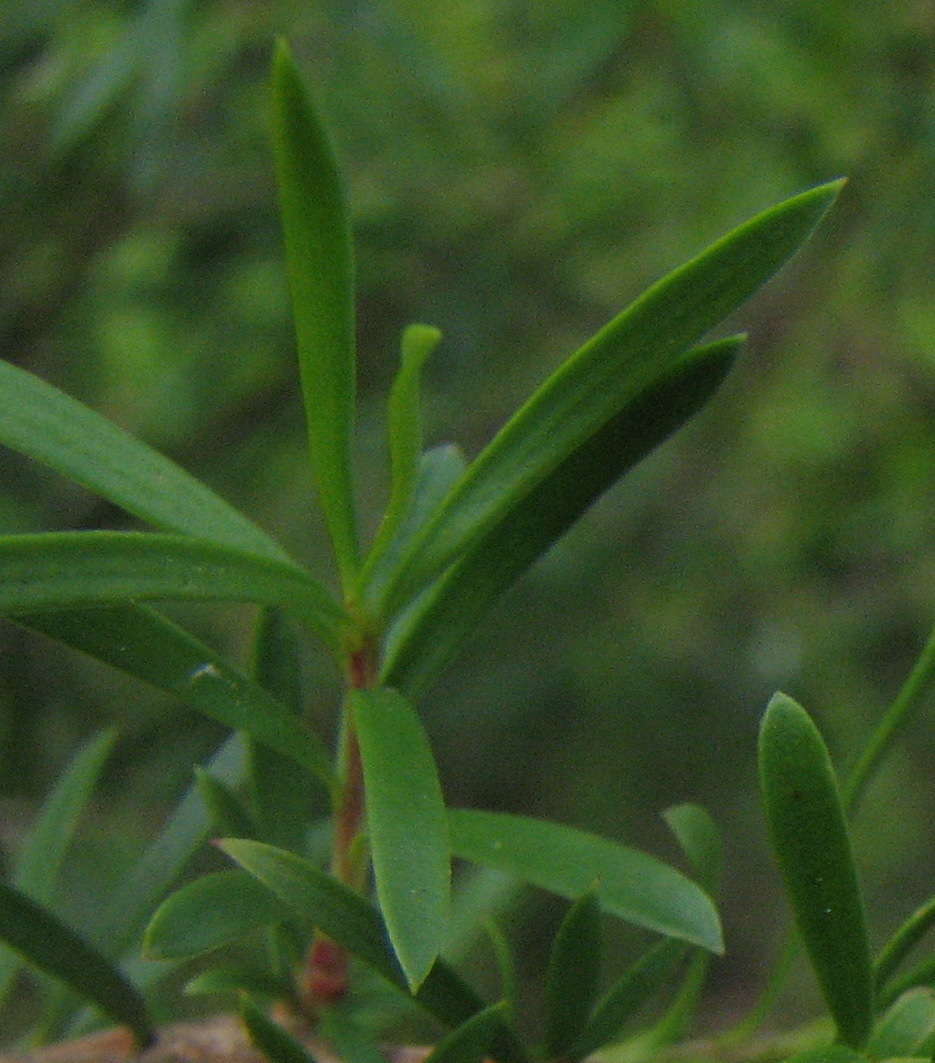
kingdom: Plantae
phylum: Tracheophyta
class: Magnoliopsida
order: Myrtales
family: Myrtaceae
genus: Kunzea
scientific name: Kunzea leptospermoides
